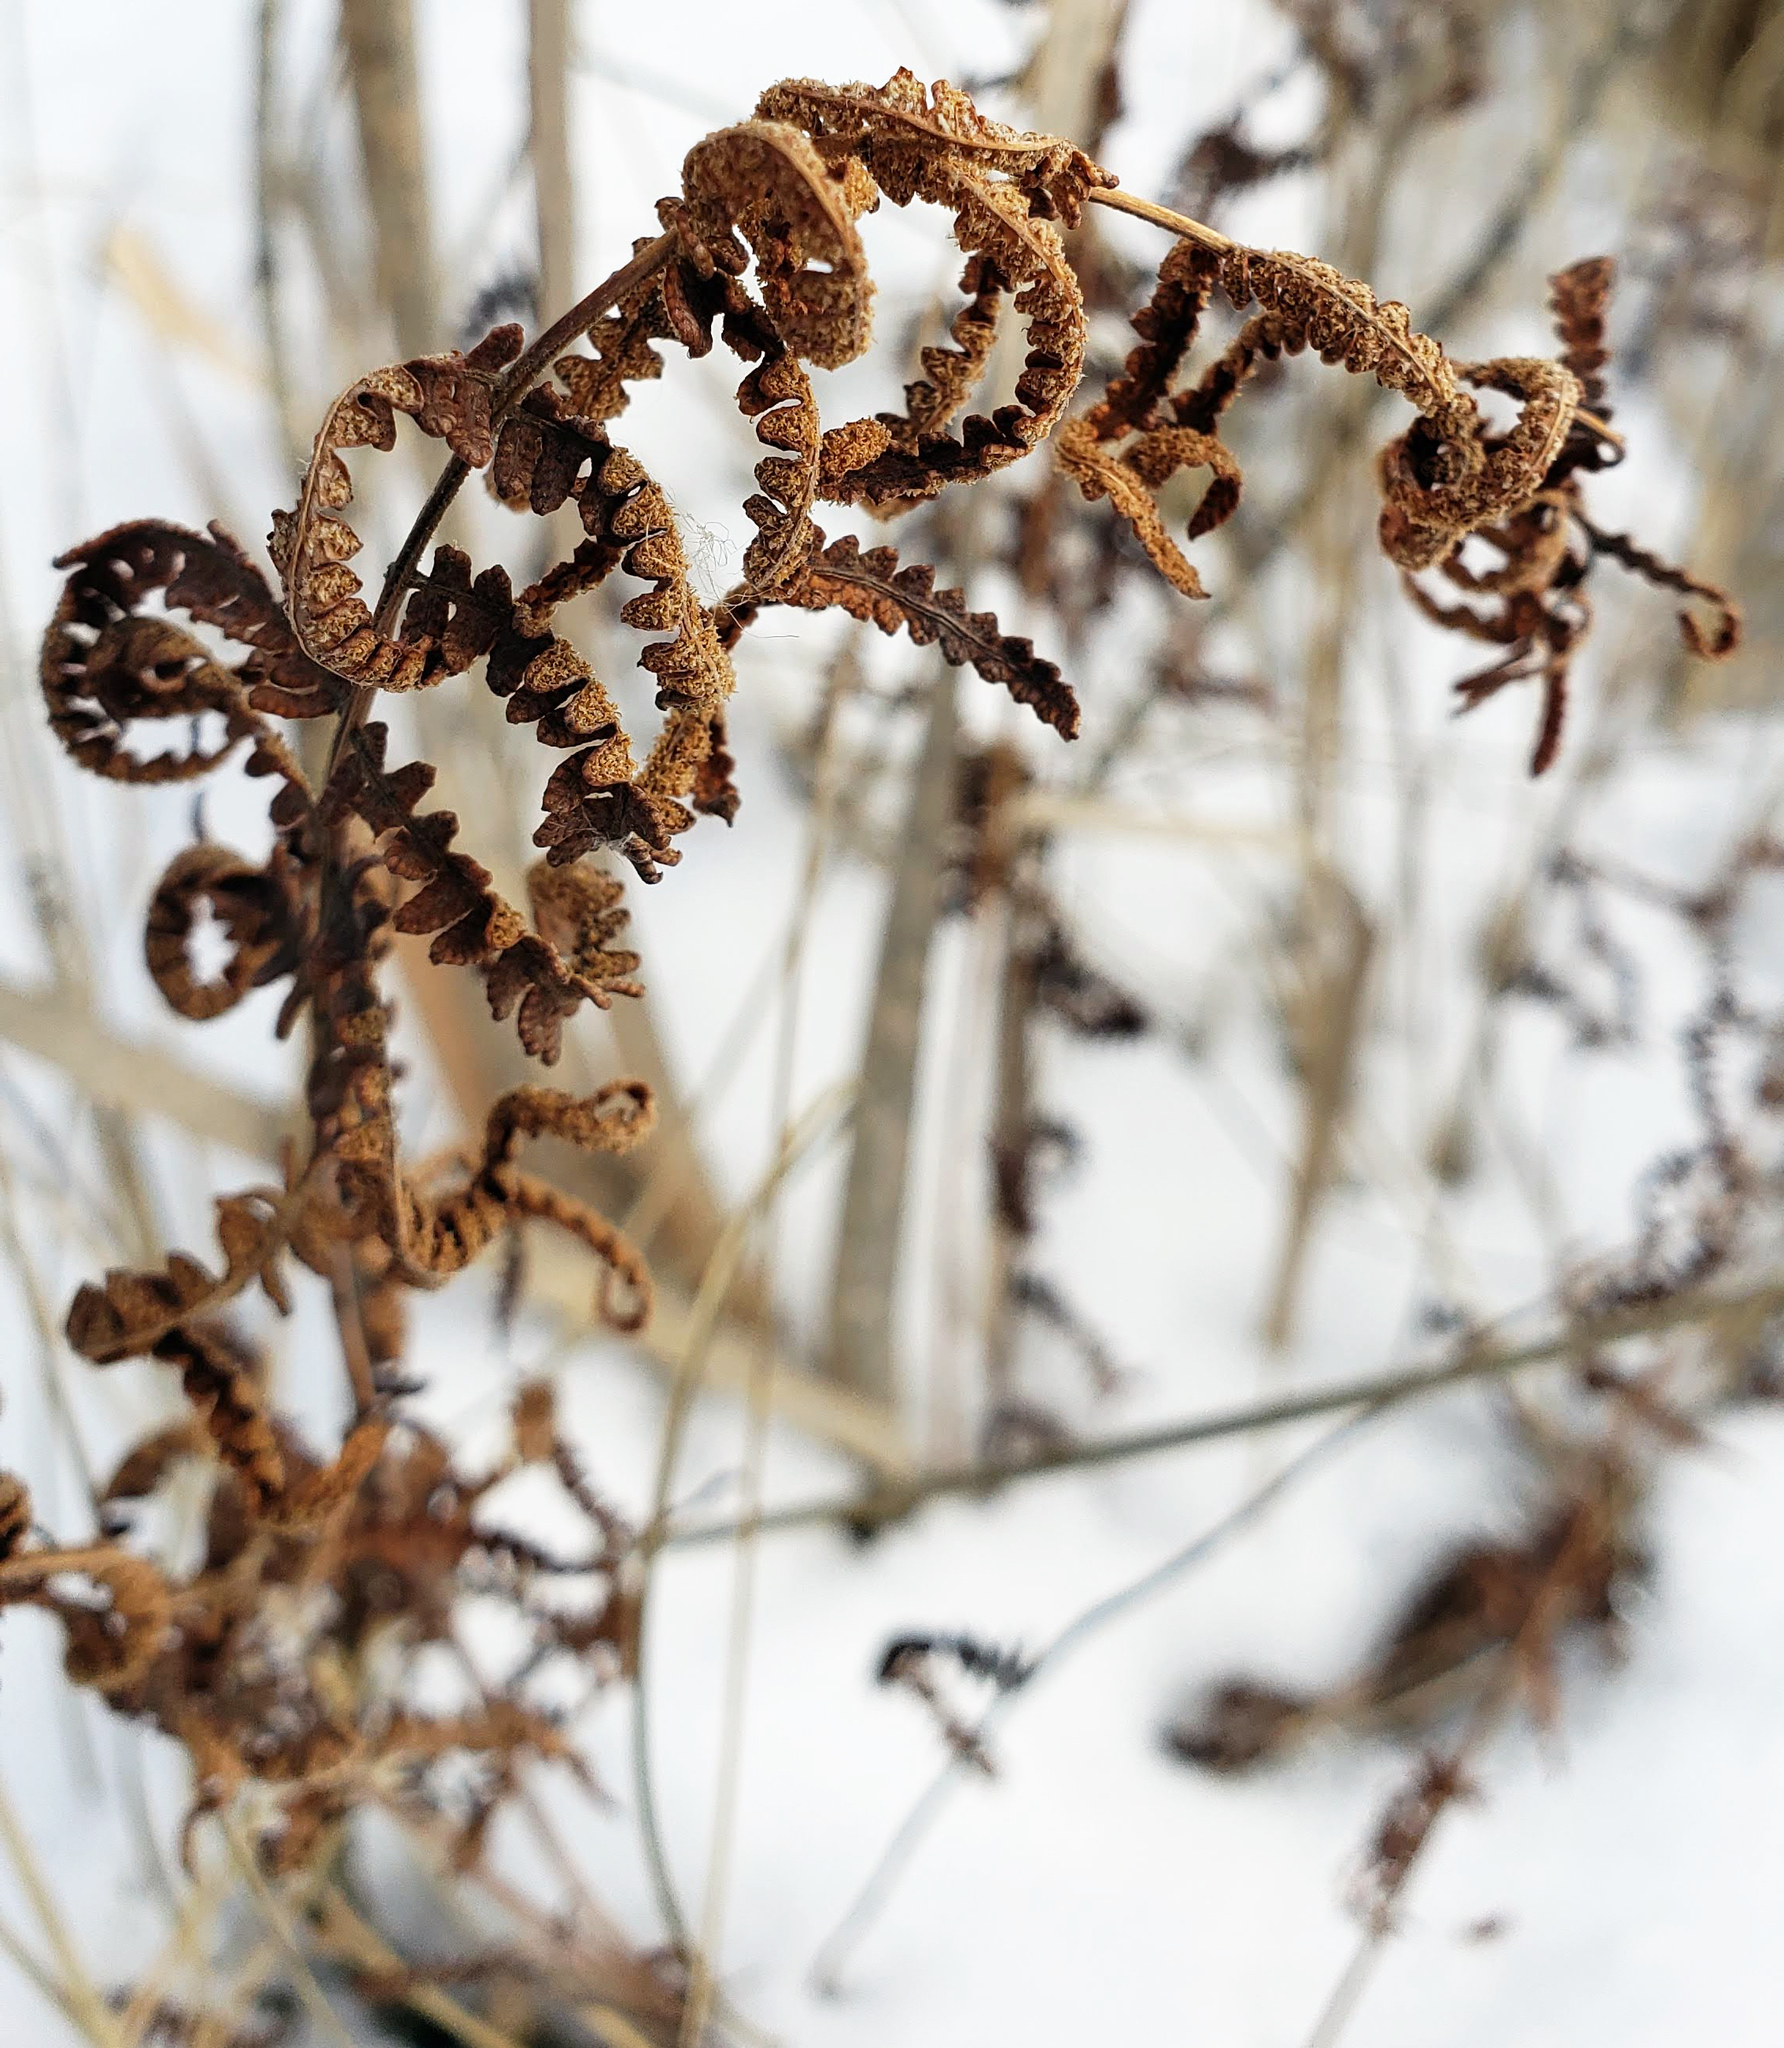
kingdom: Plantae
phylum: Tracheophyta
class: Polypodiopsida
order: Polypodiales
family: Thelypteridaceae
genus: Thelypteris
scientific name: Thelypteris palustris
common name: Marsh fern
